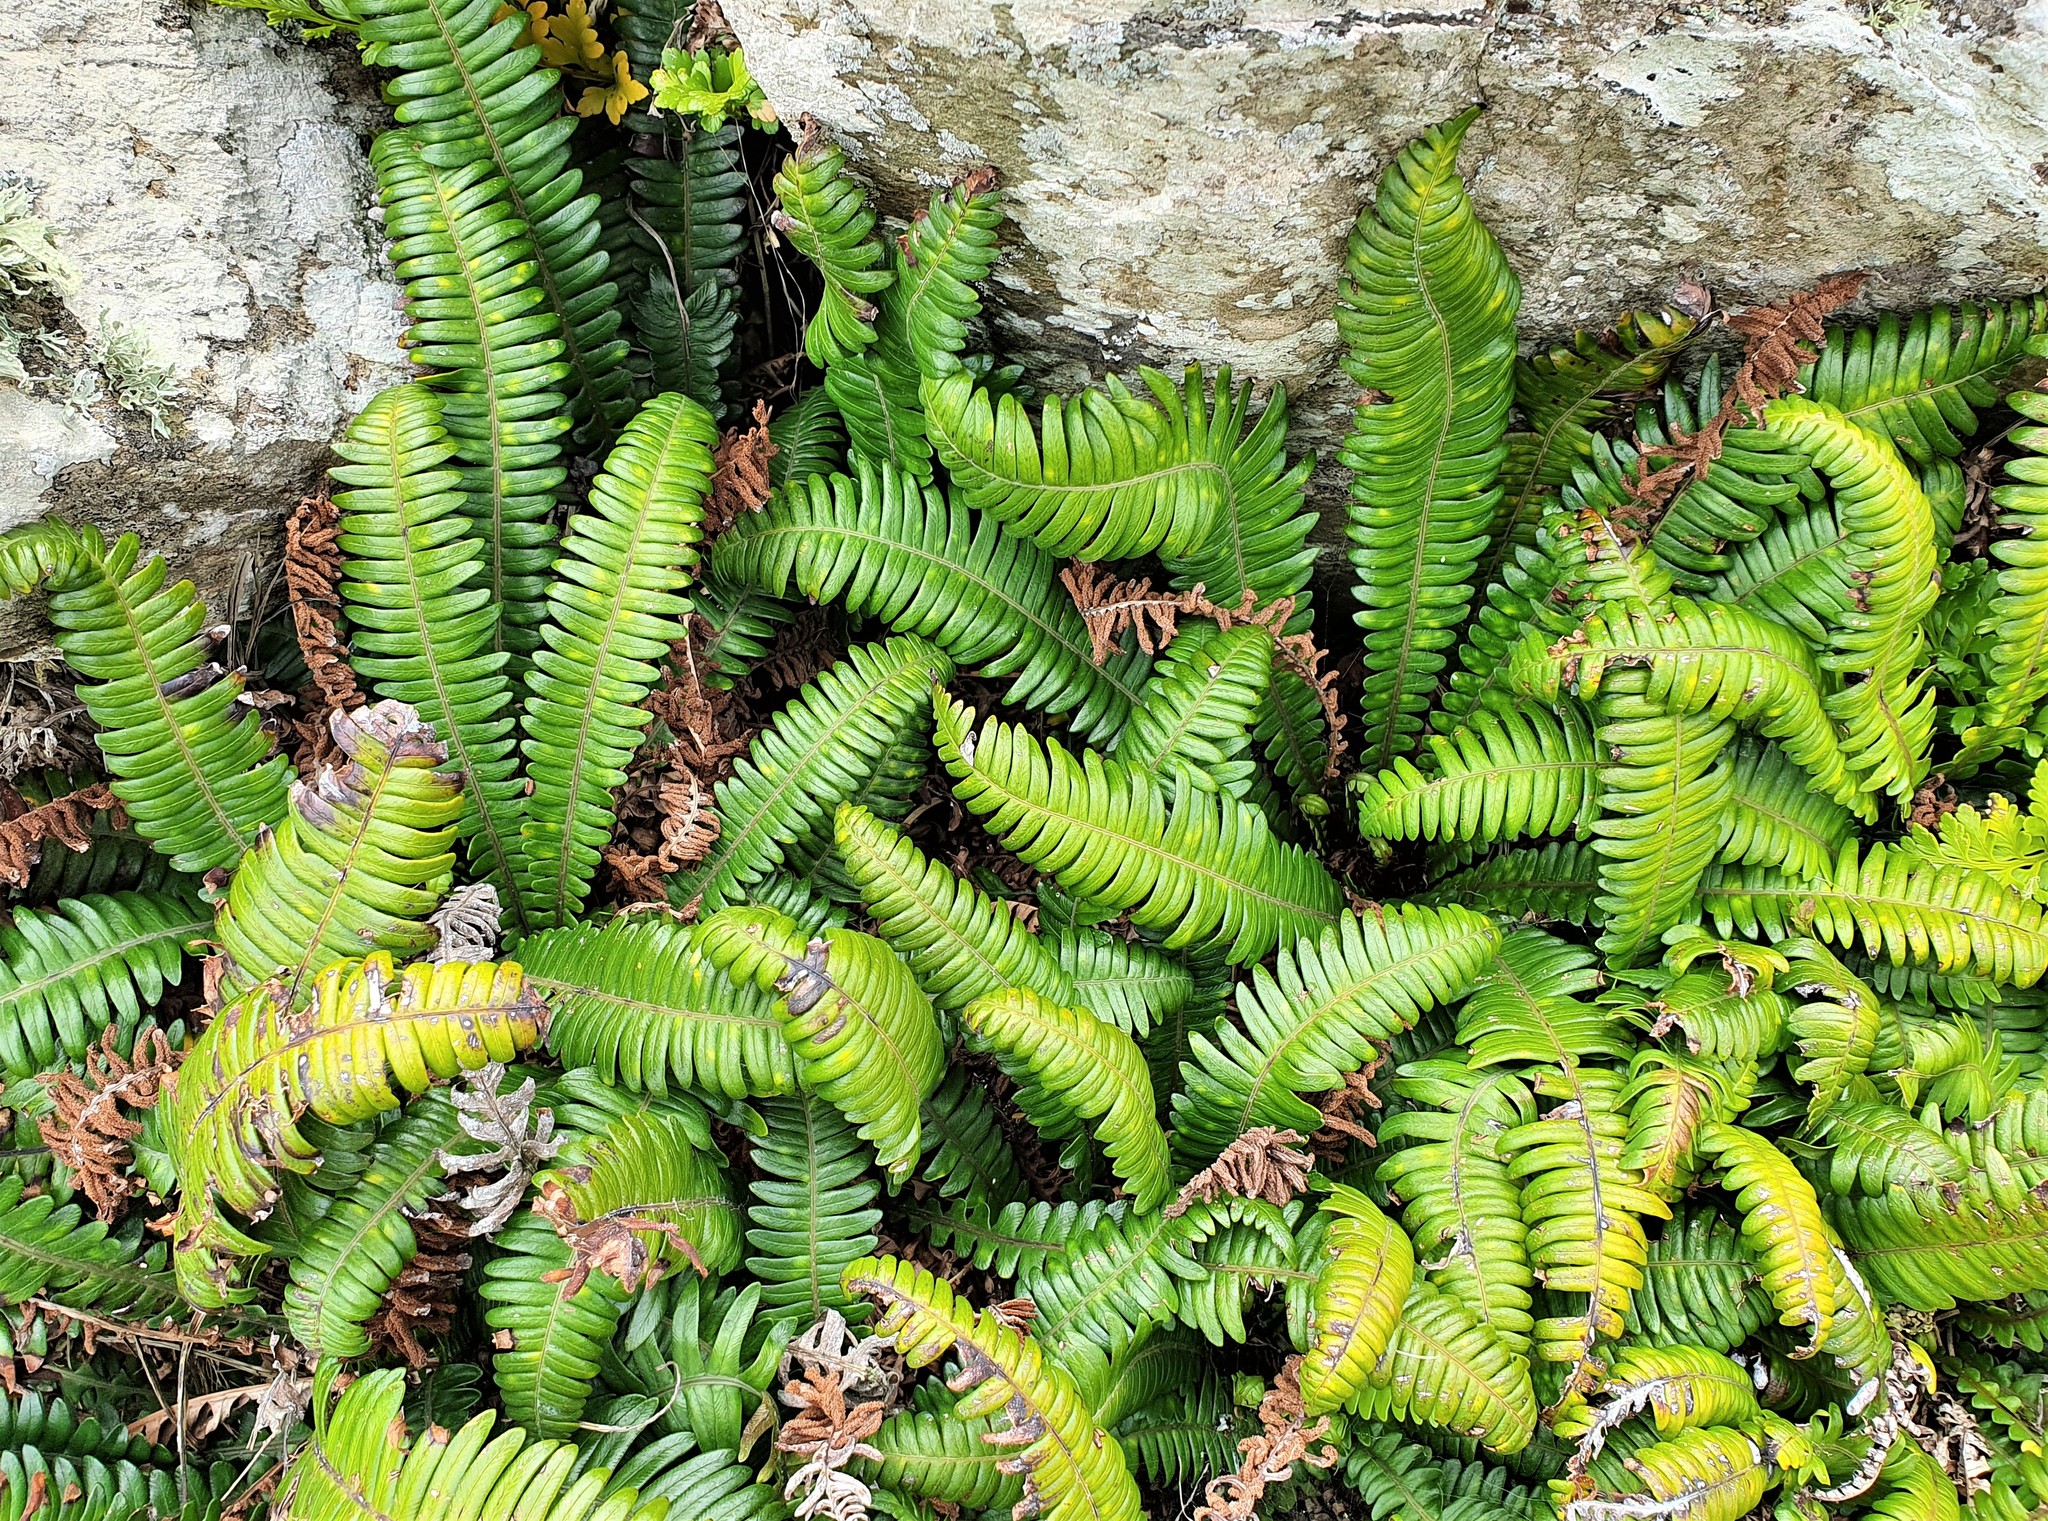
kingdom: Plantae
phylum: Tracheophyta
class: Polypodiopsida
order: Polypodiales
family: Blechnaceae
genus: Austroblechnum
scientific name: Austroblechnum durum
